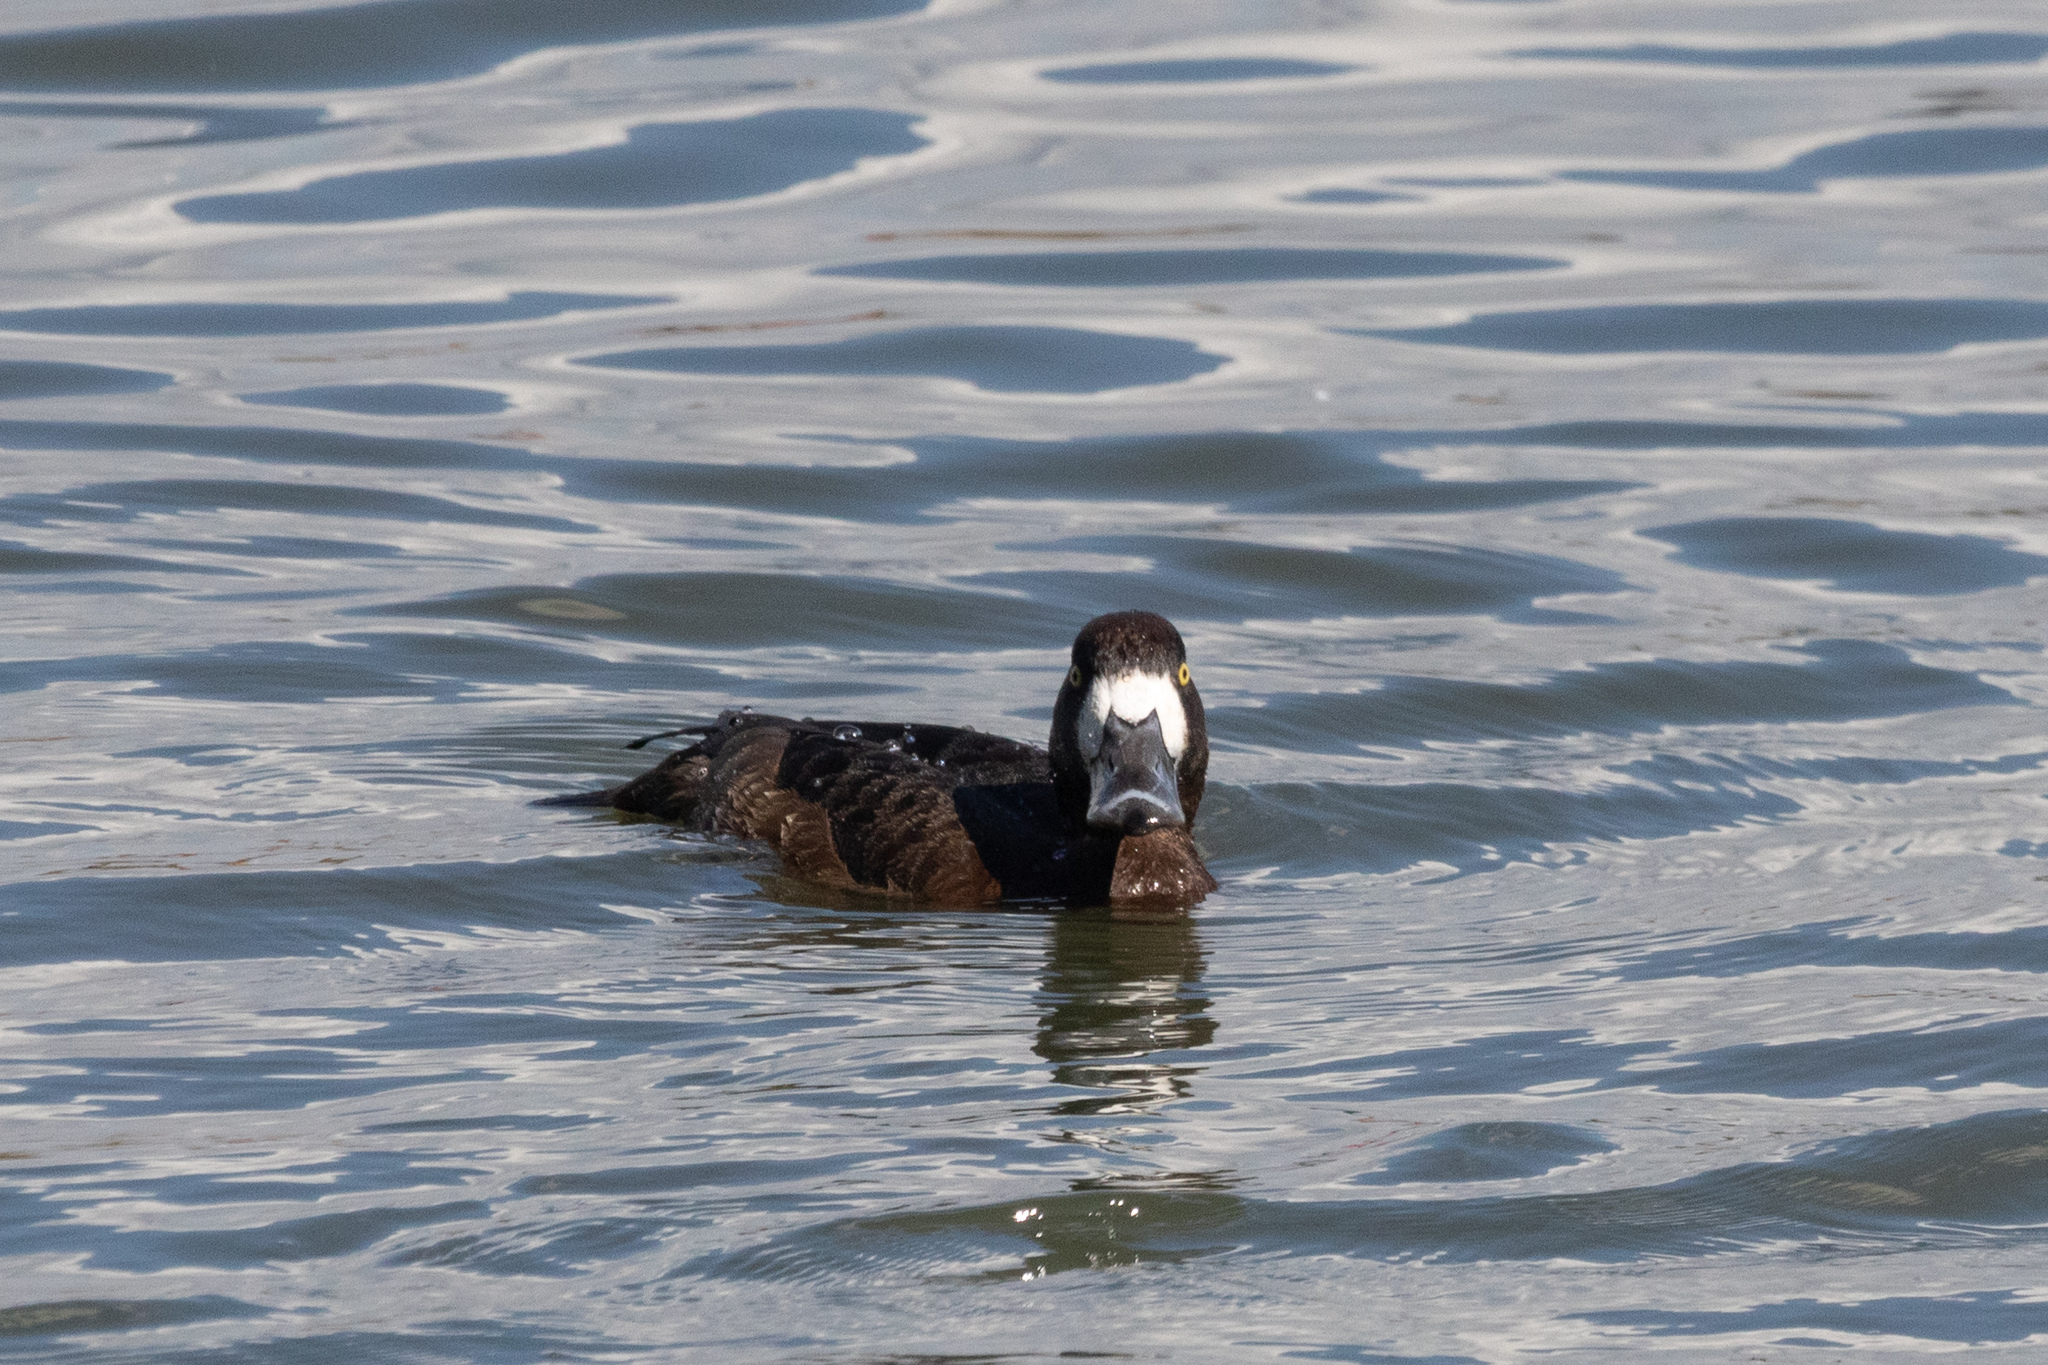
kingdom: Animalia
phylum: Chordata
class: Aves
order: Anseriformes
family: Anatidae
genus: Aythya
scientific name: Aythya marila
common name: Greater scaup
